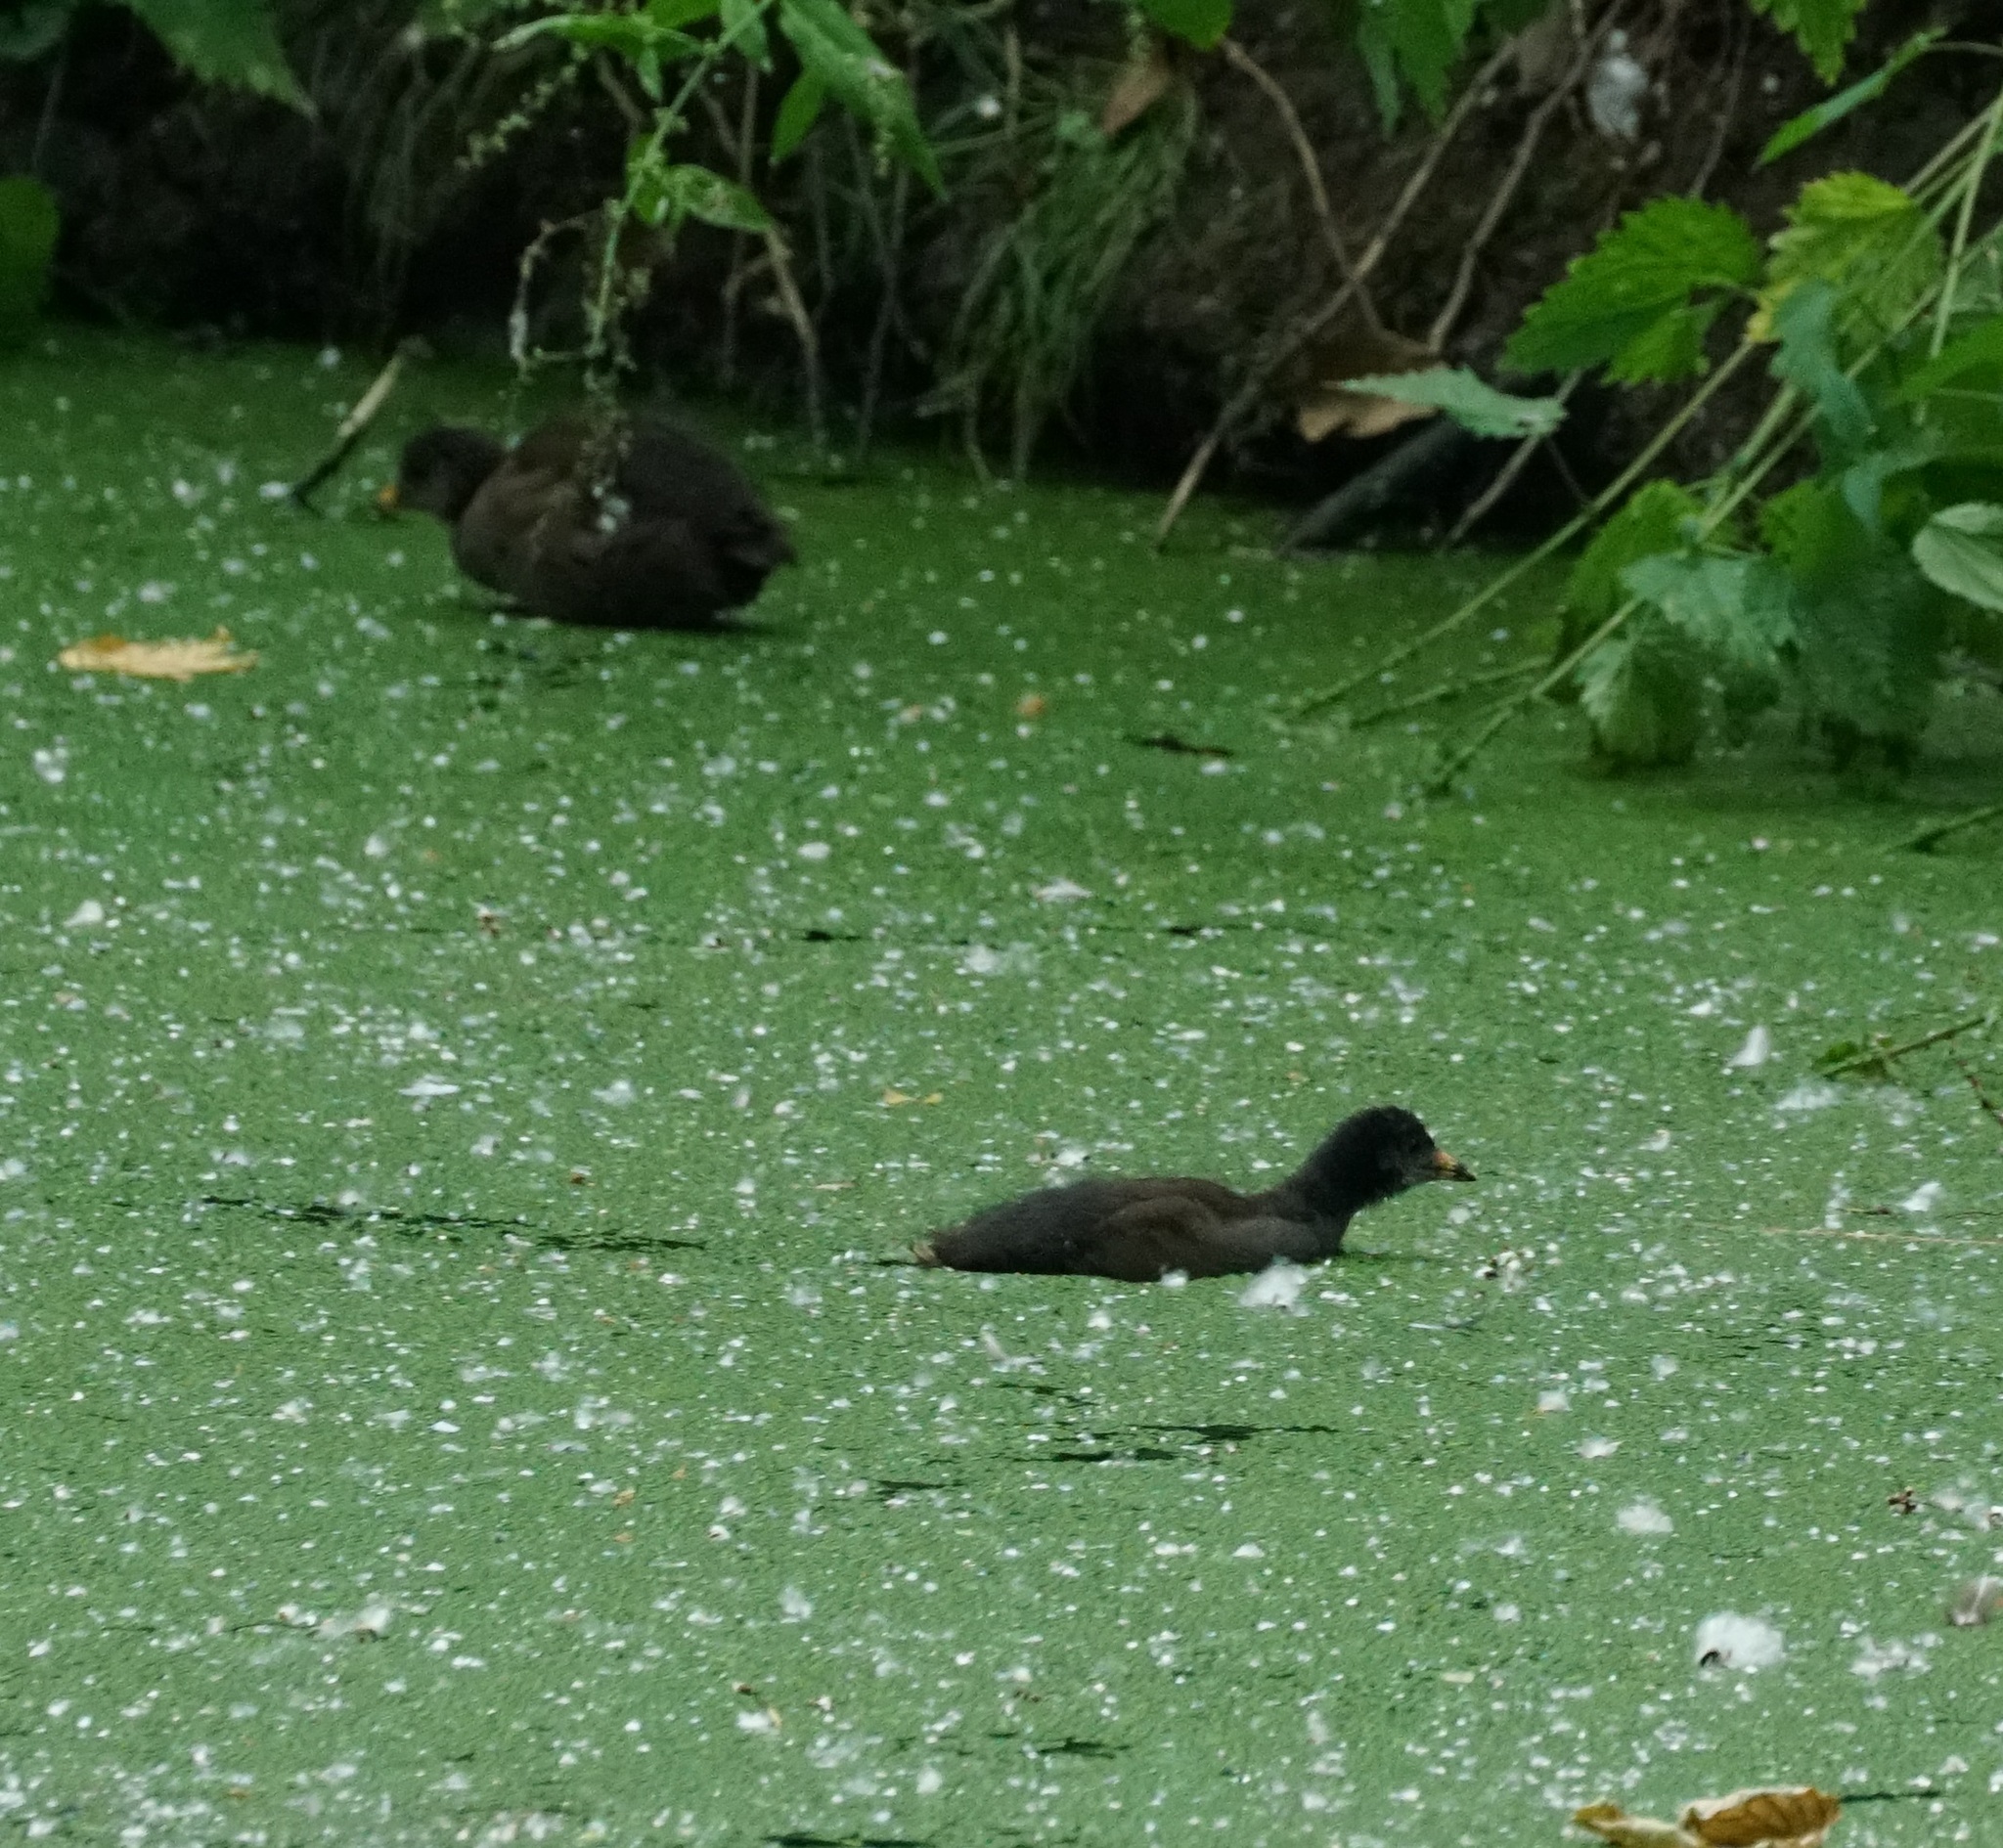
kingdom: Animalia
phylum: Chordata
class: Aves
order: Gruiformes
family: Rallidae
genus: Gallinula
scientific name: Gallinula chloropus
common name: Common moorhen
